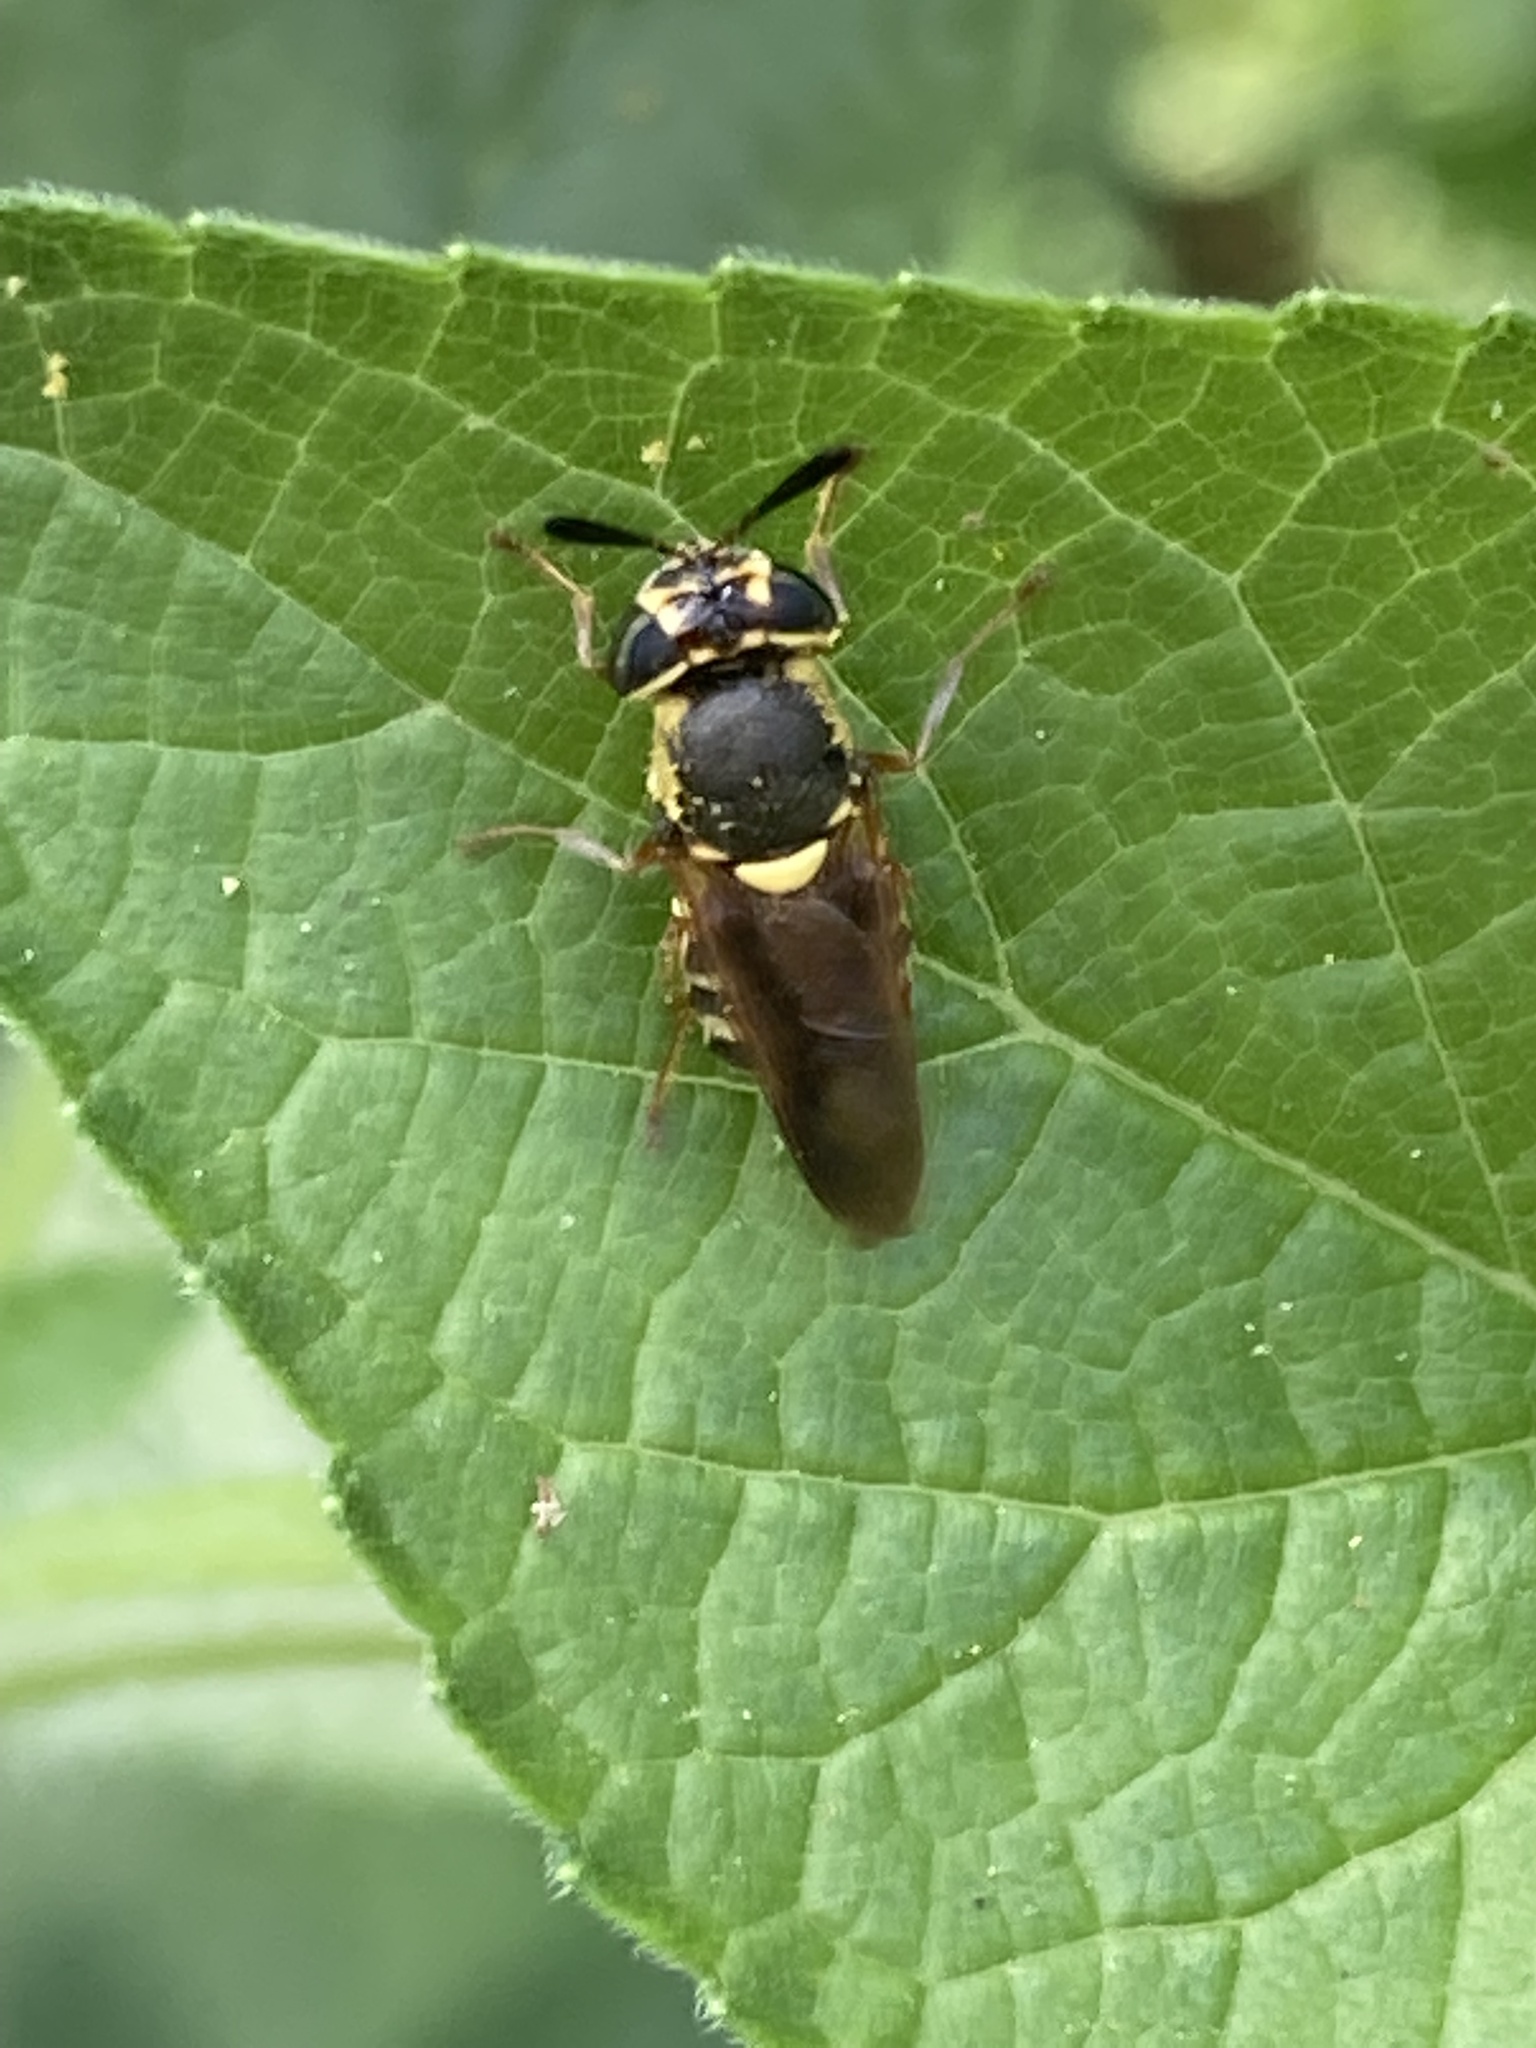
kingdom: Animalia
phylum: Arthropoda
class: Insecta
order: Diptera
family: Stratiomyidae
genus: Hoplitimyia
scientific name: Hoplitimyia constans
